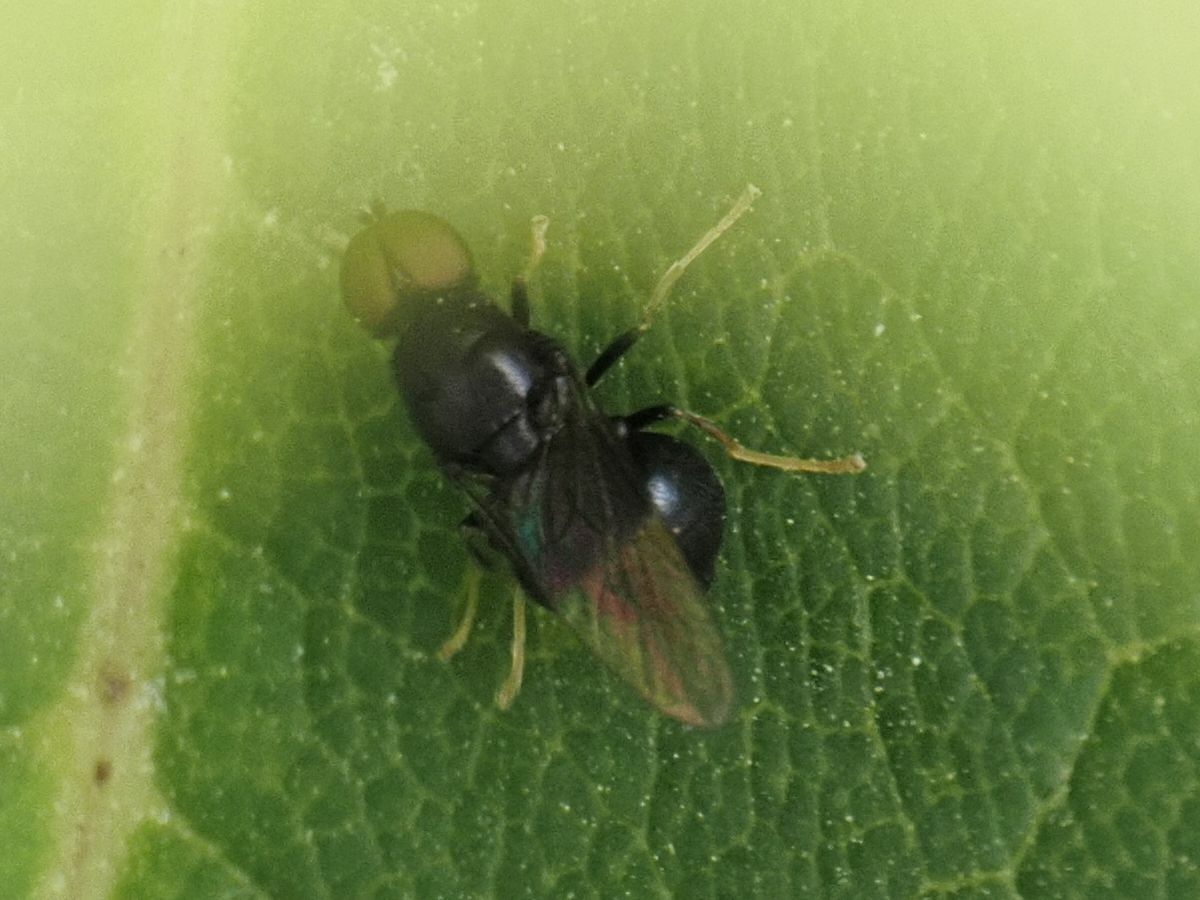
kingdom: Animalia
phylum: Arthropoda
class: Insecta
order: Diptera
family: Stratiomyidae
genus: Pachygaster
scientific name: Pachygaster atra
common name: Dark-winged black
